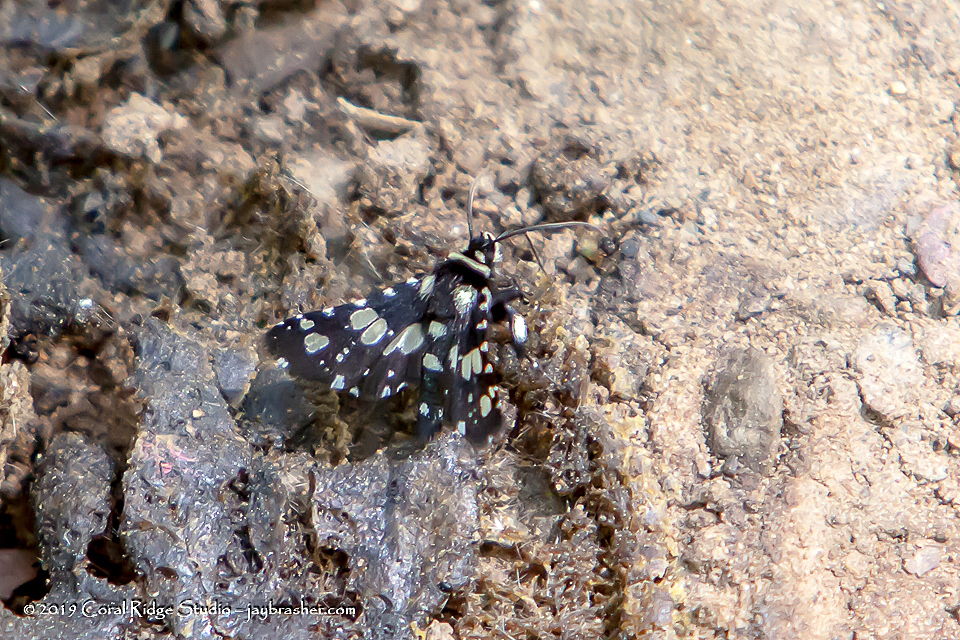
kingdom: Animalia
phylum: Arthropoda
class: Insecta
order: Lepidoptera
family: Thyrididae
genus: Pseudothyris
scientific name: Pseudothyris sepulchralis
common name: Mournful thyris moth
